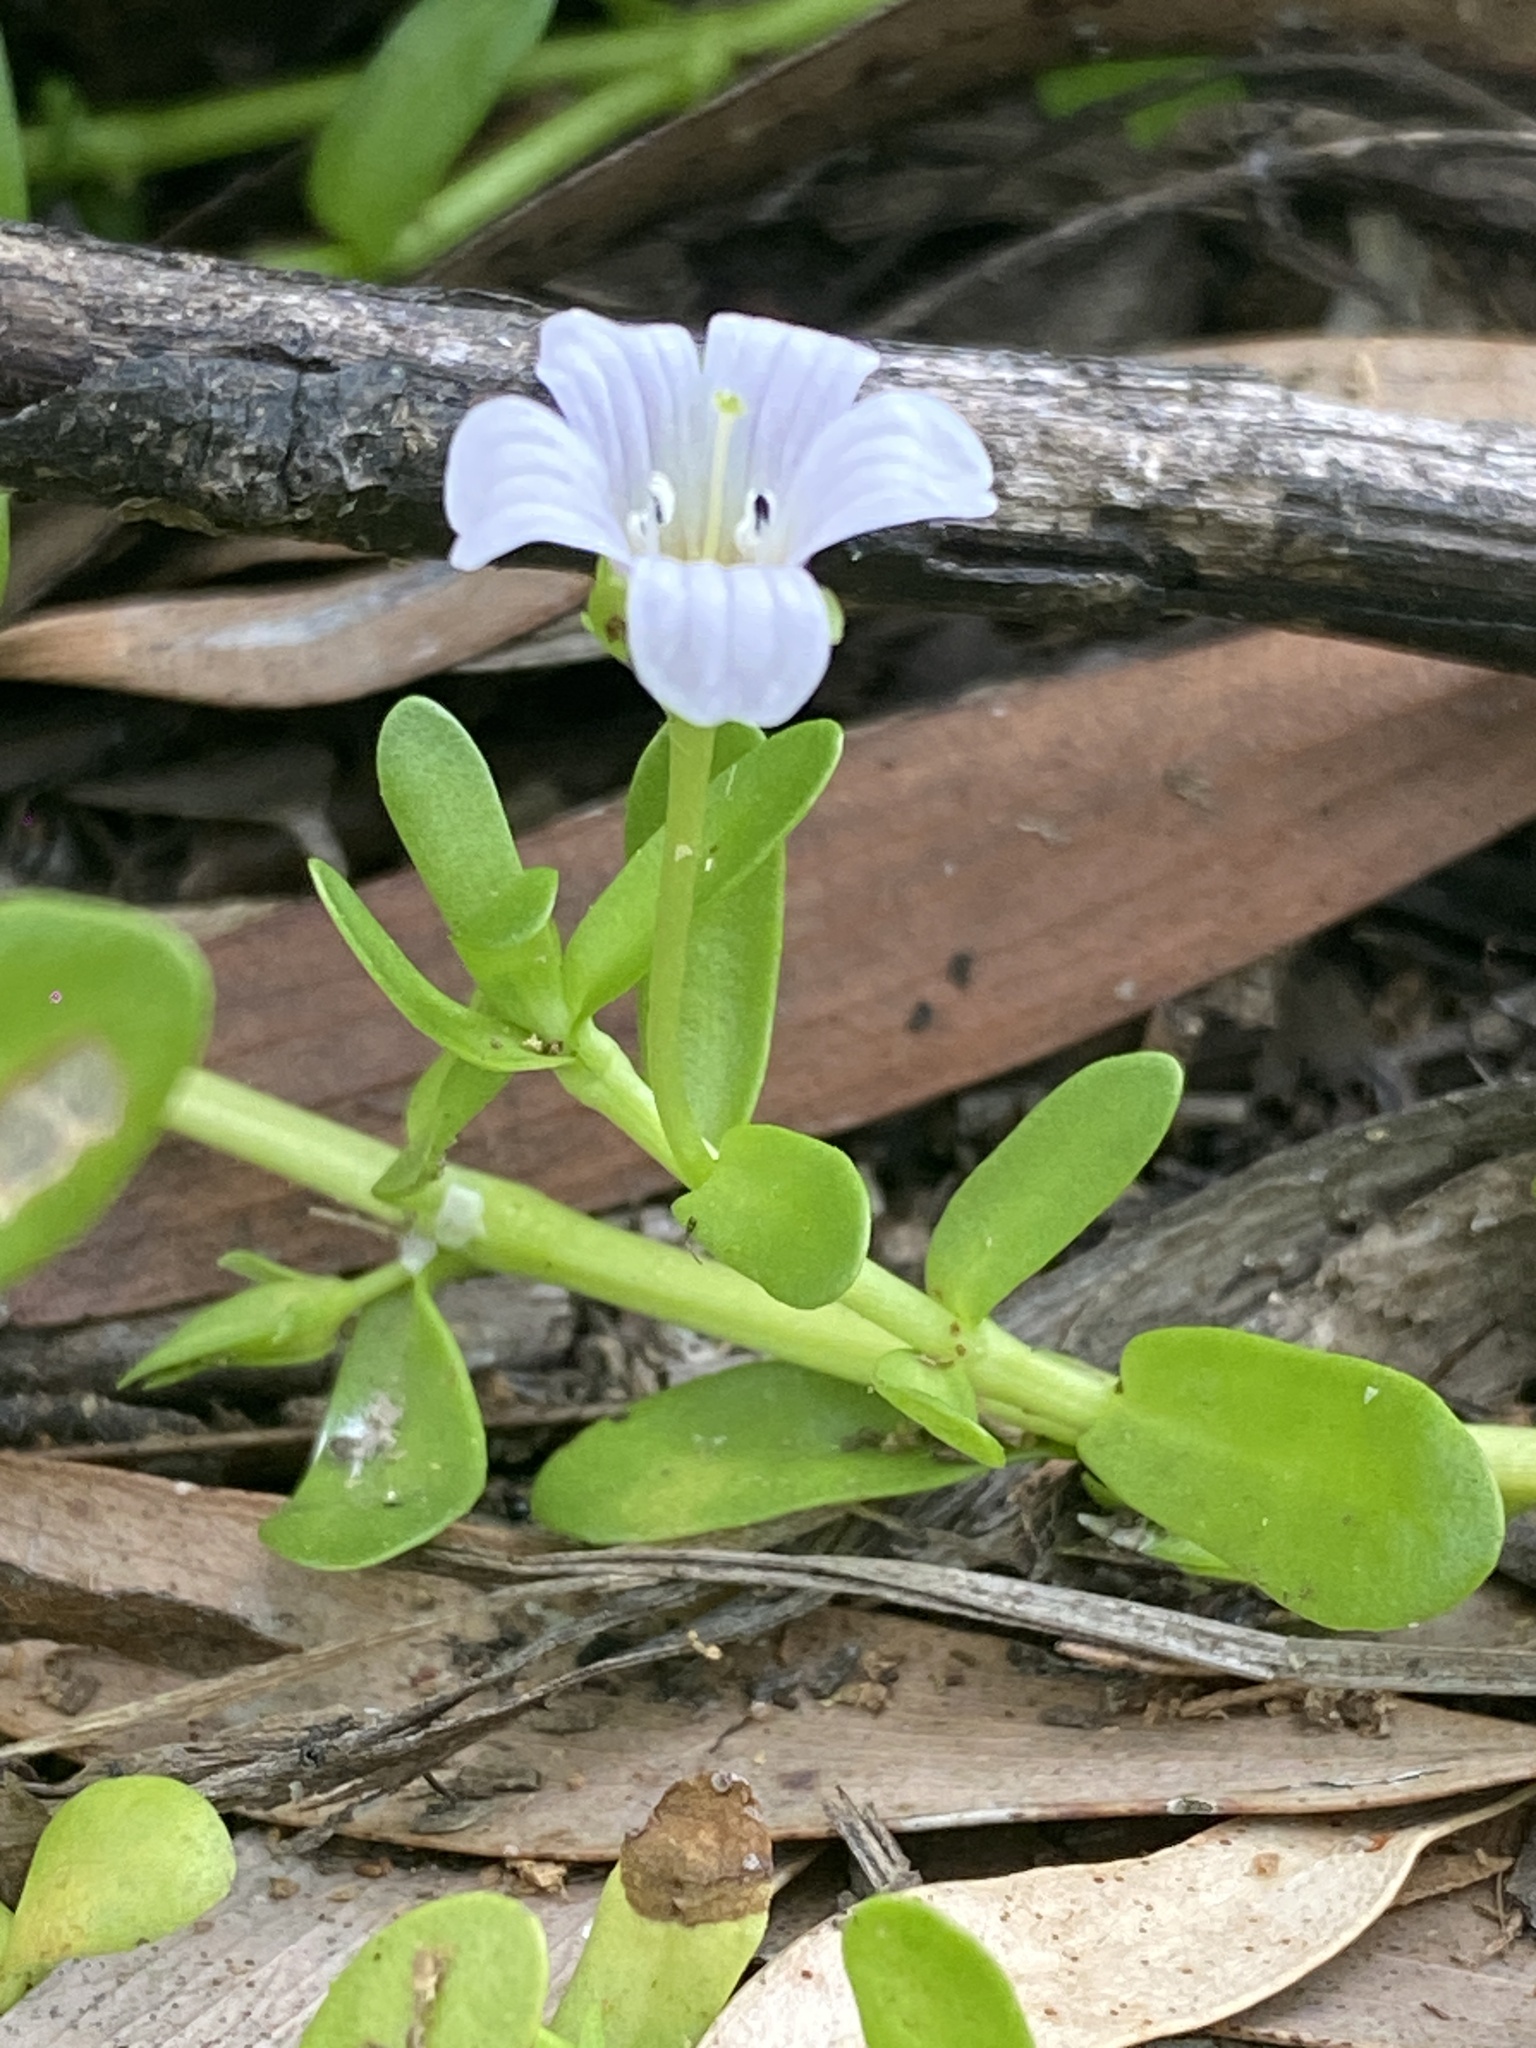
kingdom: Plantae
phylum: Tracheophyta
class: Magnoliopsida
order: Lamiales
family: Plantaginaceae
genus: Bacopa
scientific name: Bacopa monnieri
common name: Indian-pennywort
